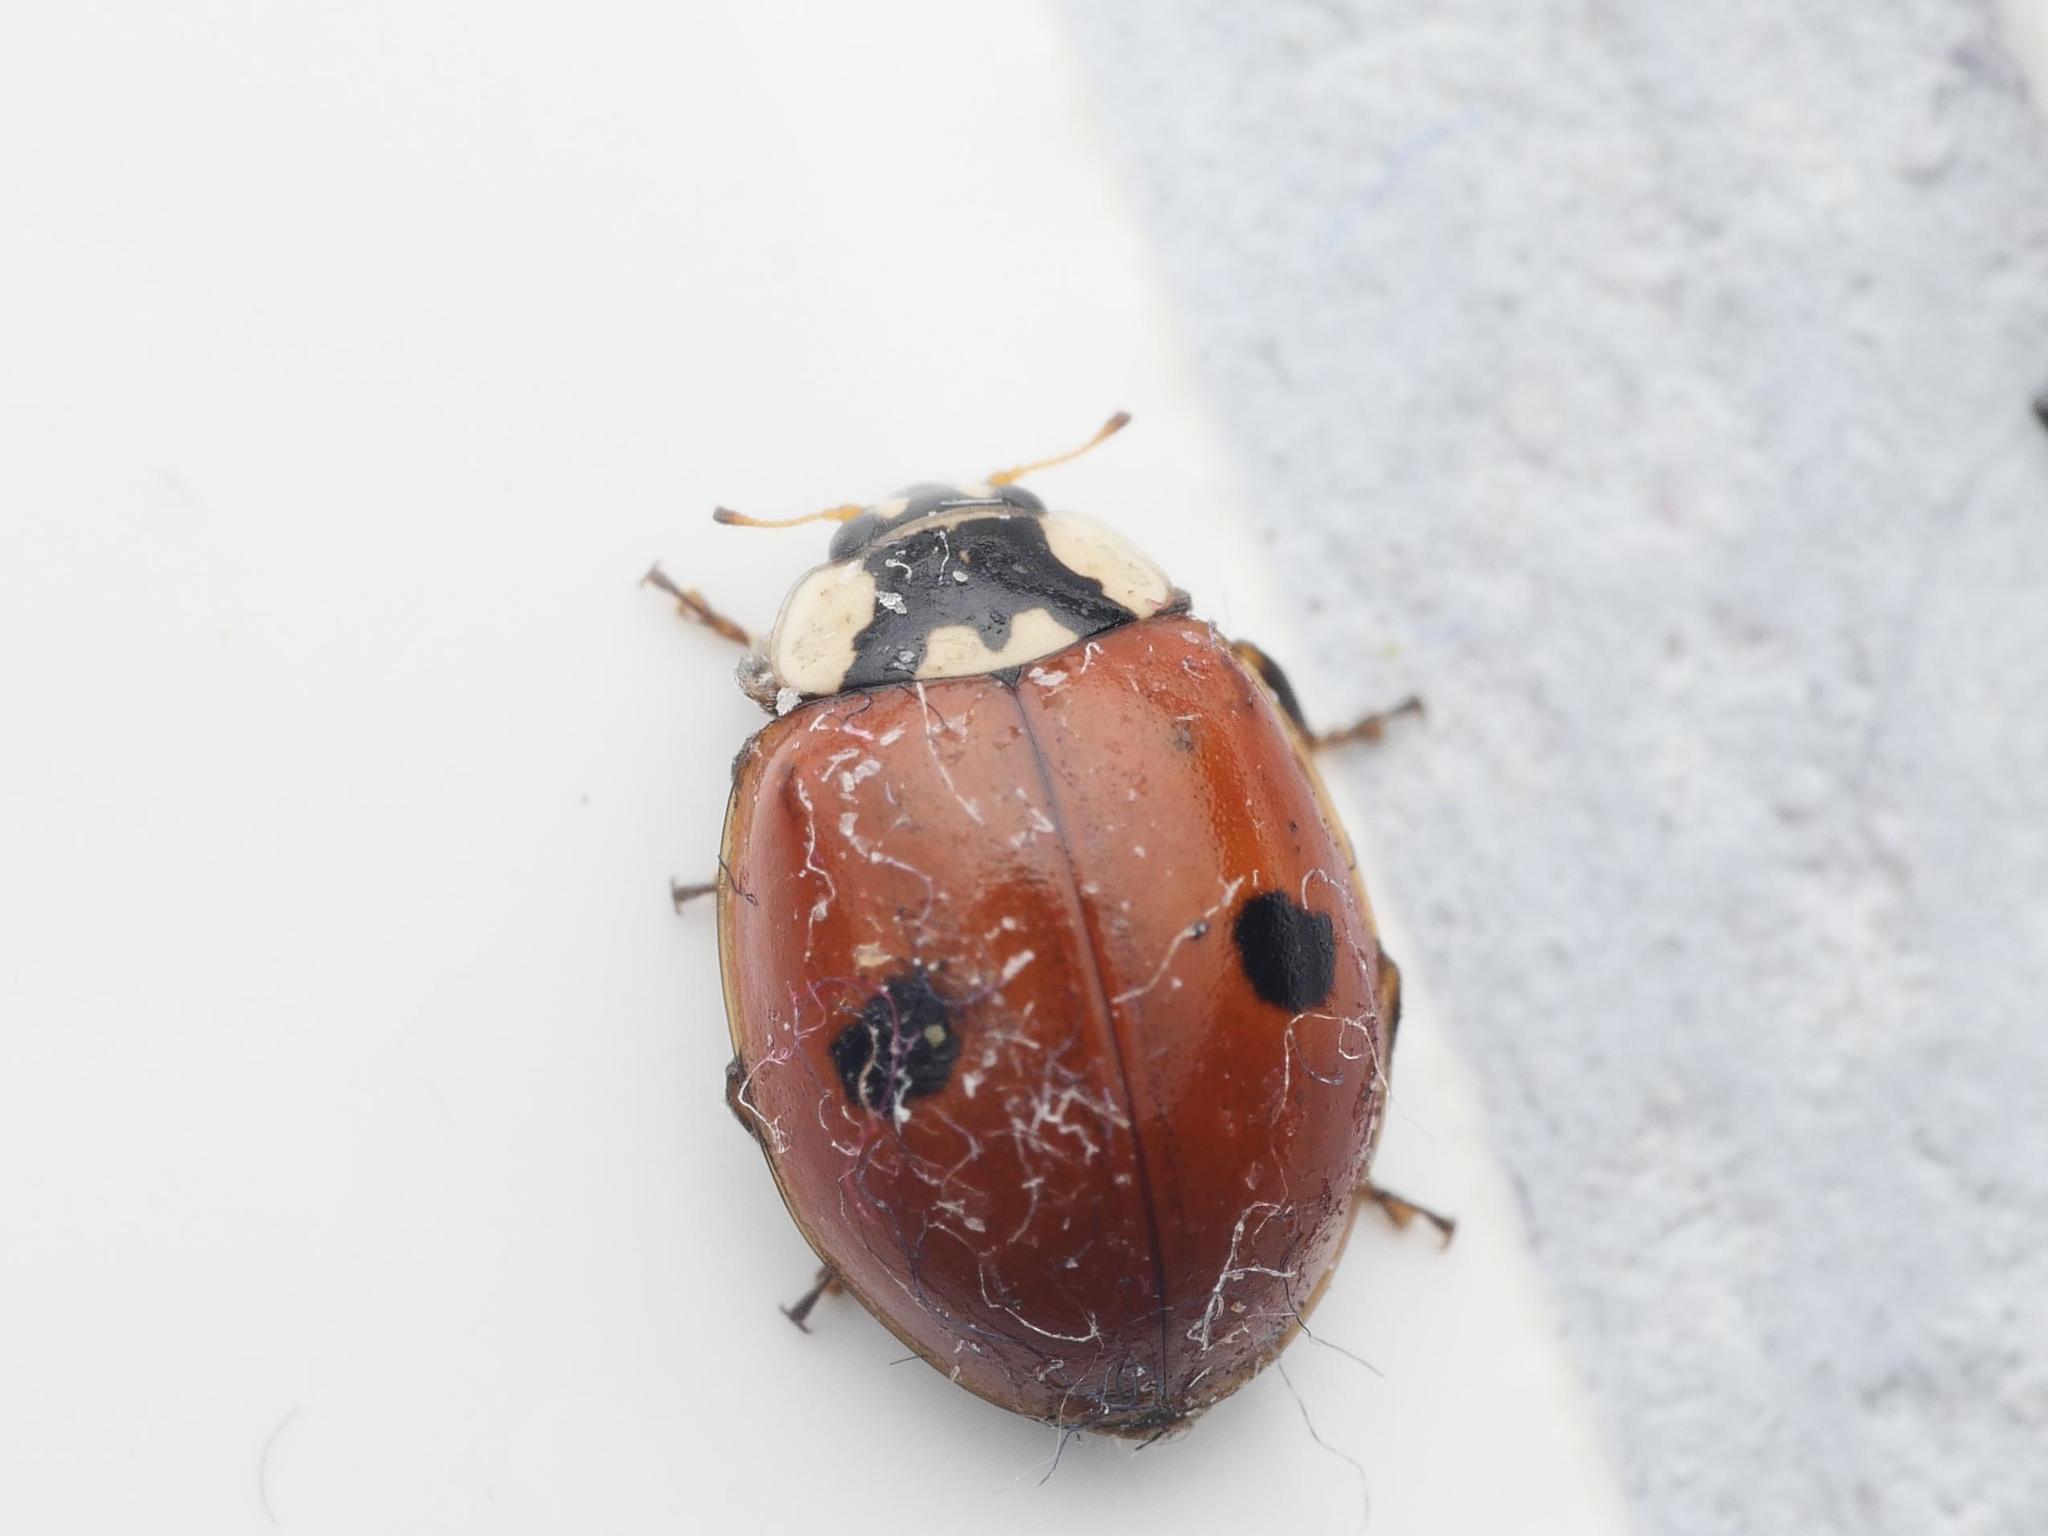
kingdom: Animalia
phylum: Arthropoda
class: Insecta
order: Coleoptera
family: Coccinellidae
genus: Adalia
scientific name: Adalia bipunctata
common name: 2-spot ladybird
